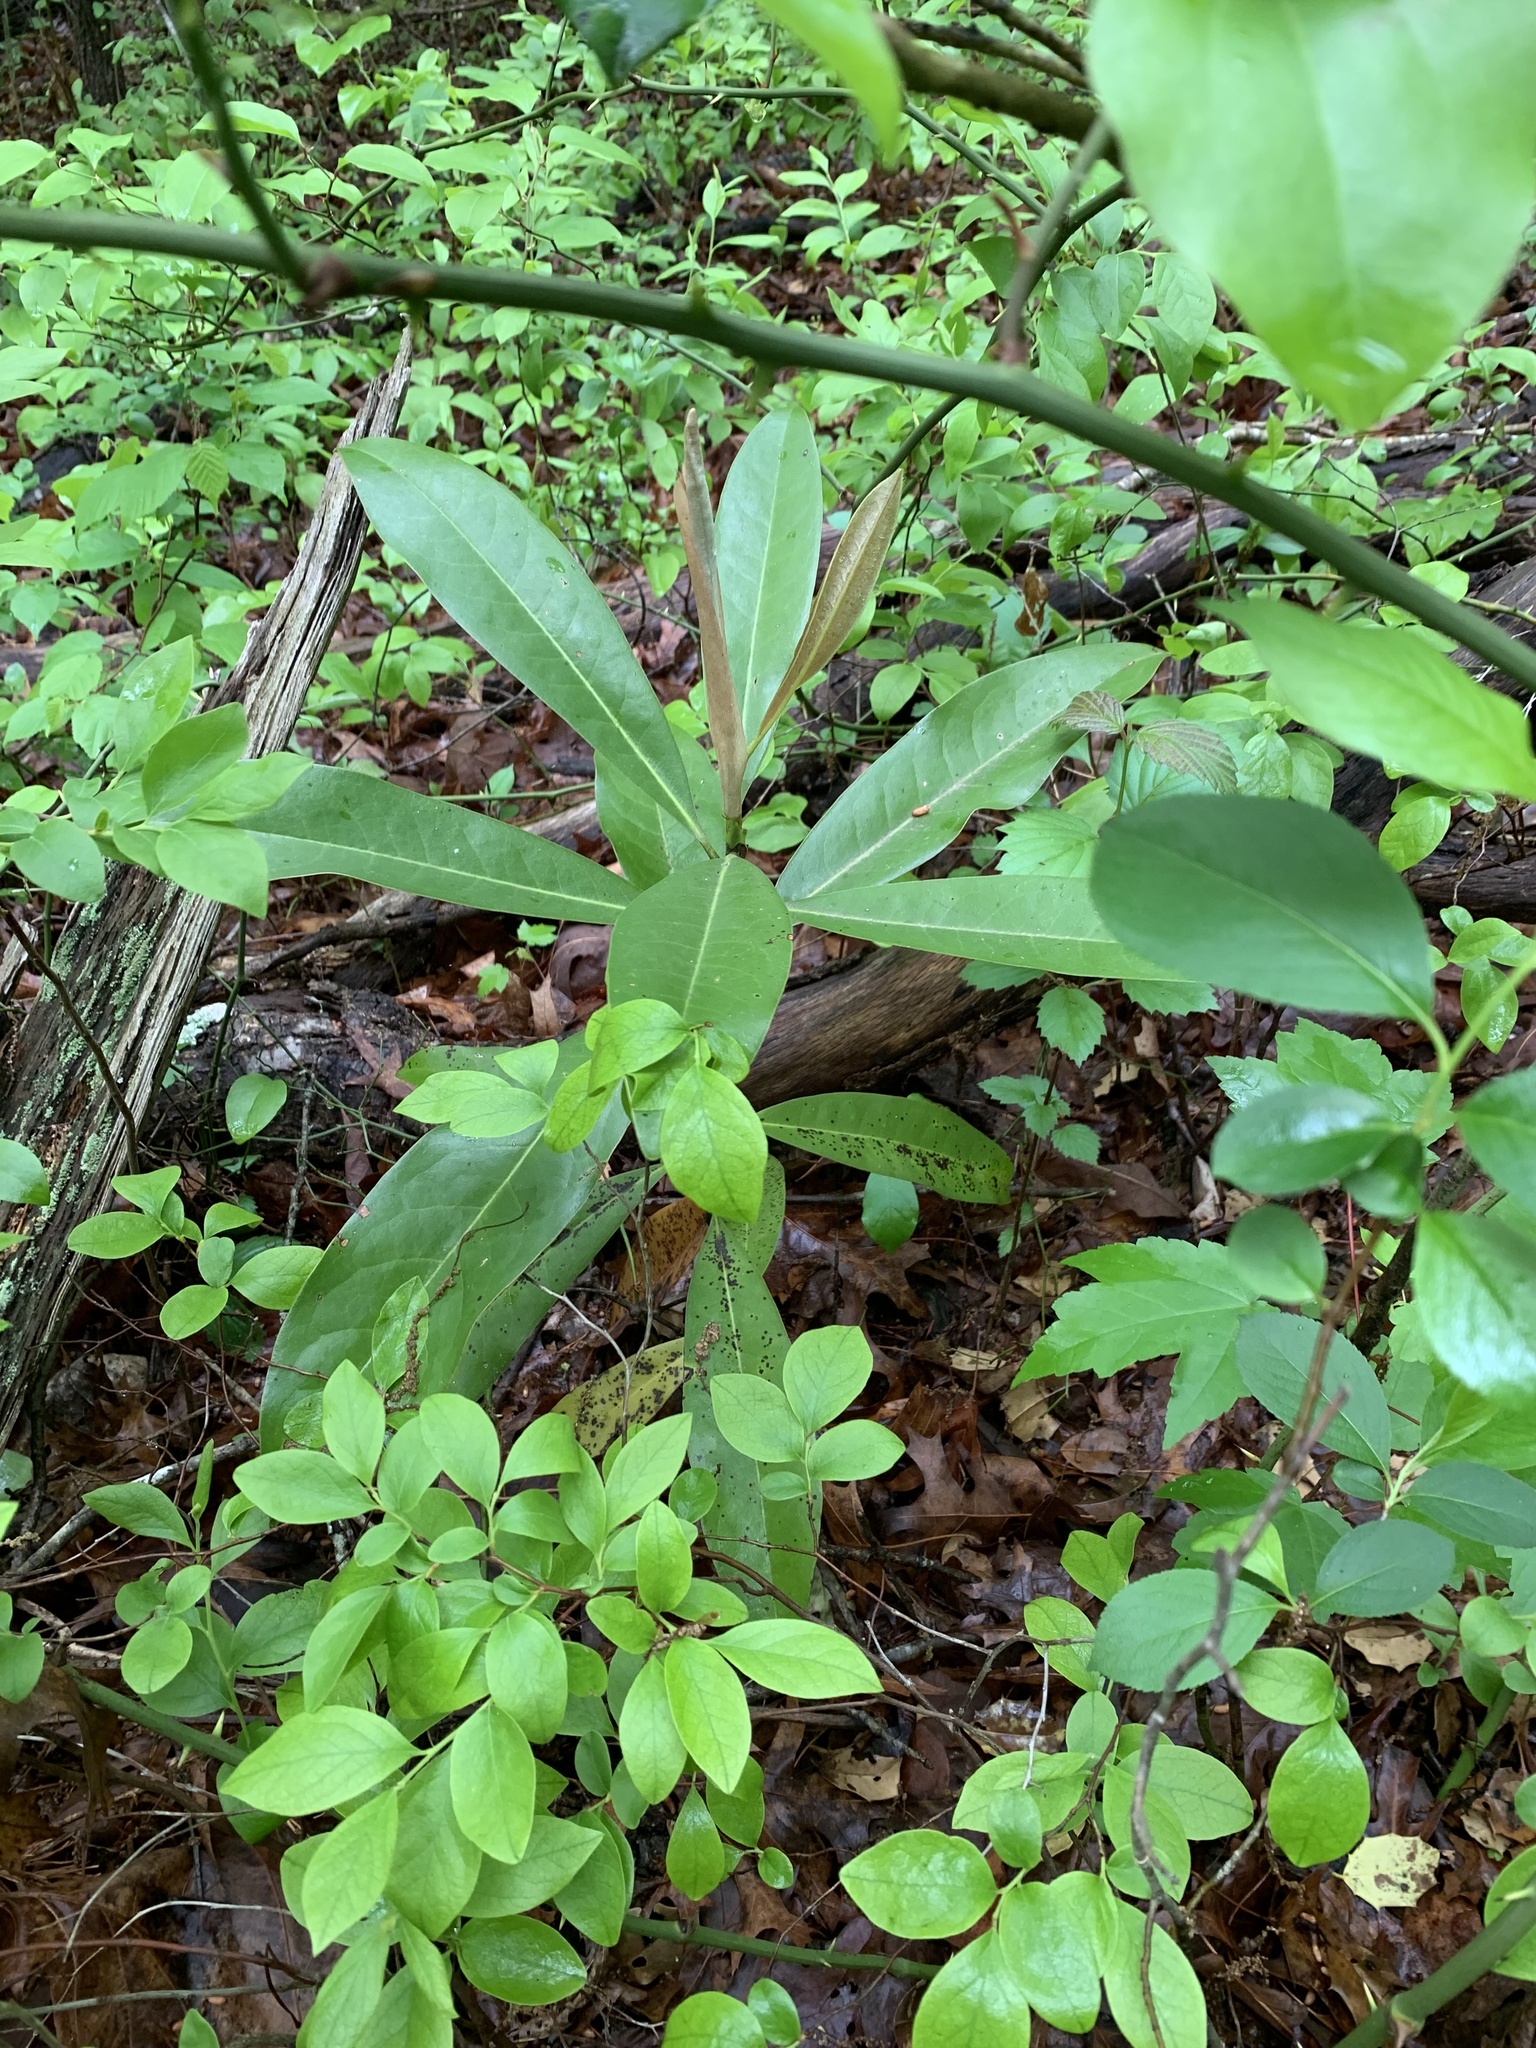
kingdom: Plantae
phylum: Tracheophyta
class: Magnoliopsida
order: Ericales
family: Ericaceae
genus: Rhododendron
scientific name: Rhododendron maximum
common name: Great rhododendron
